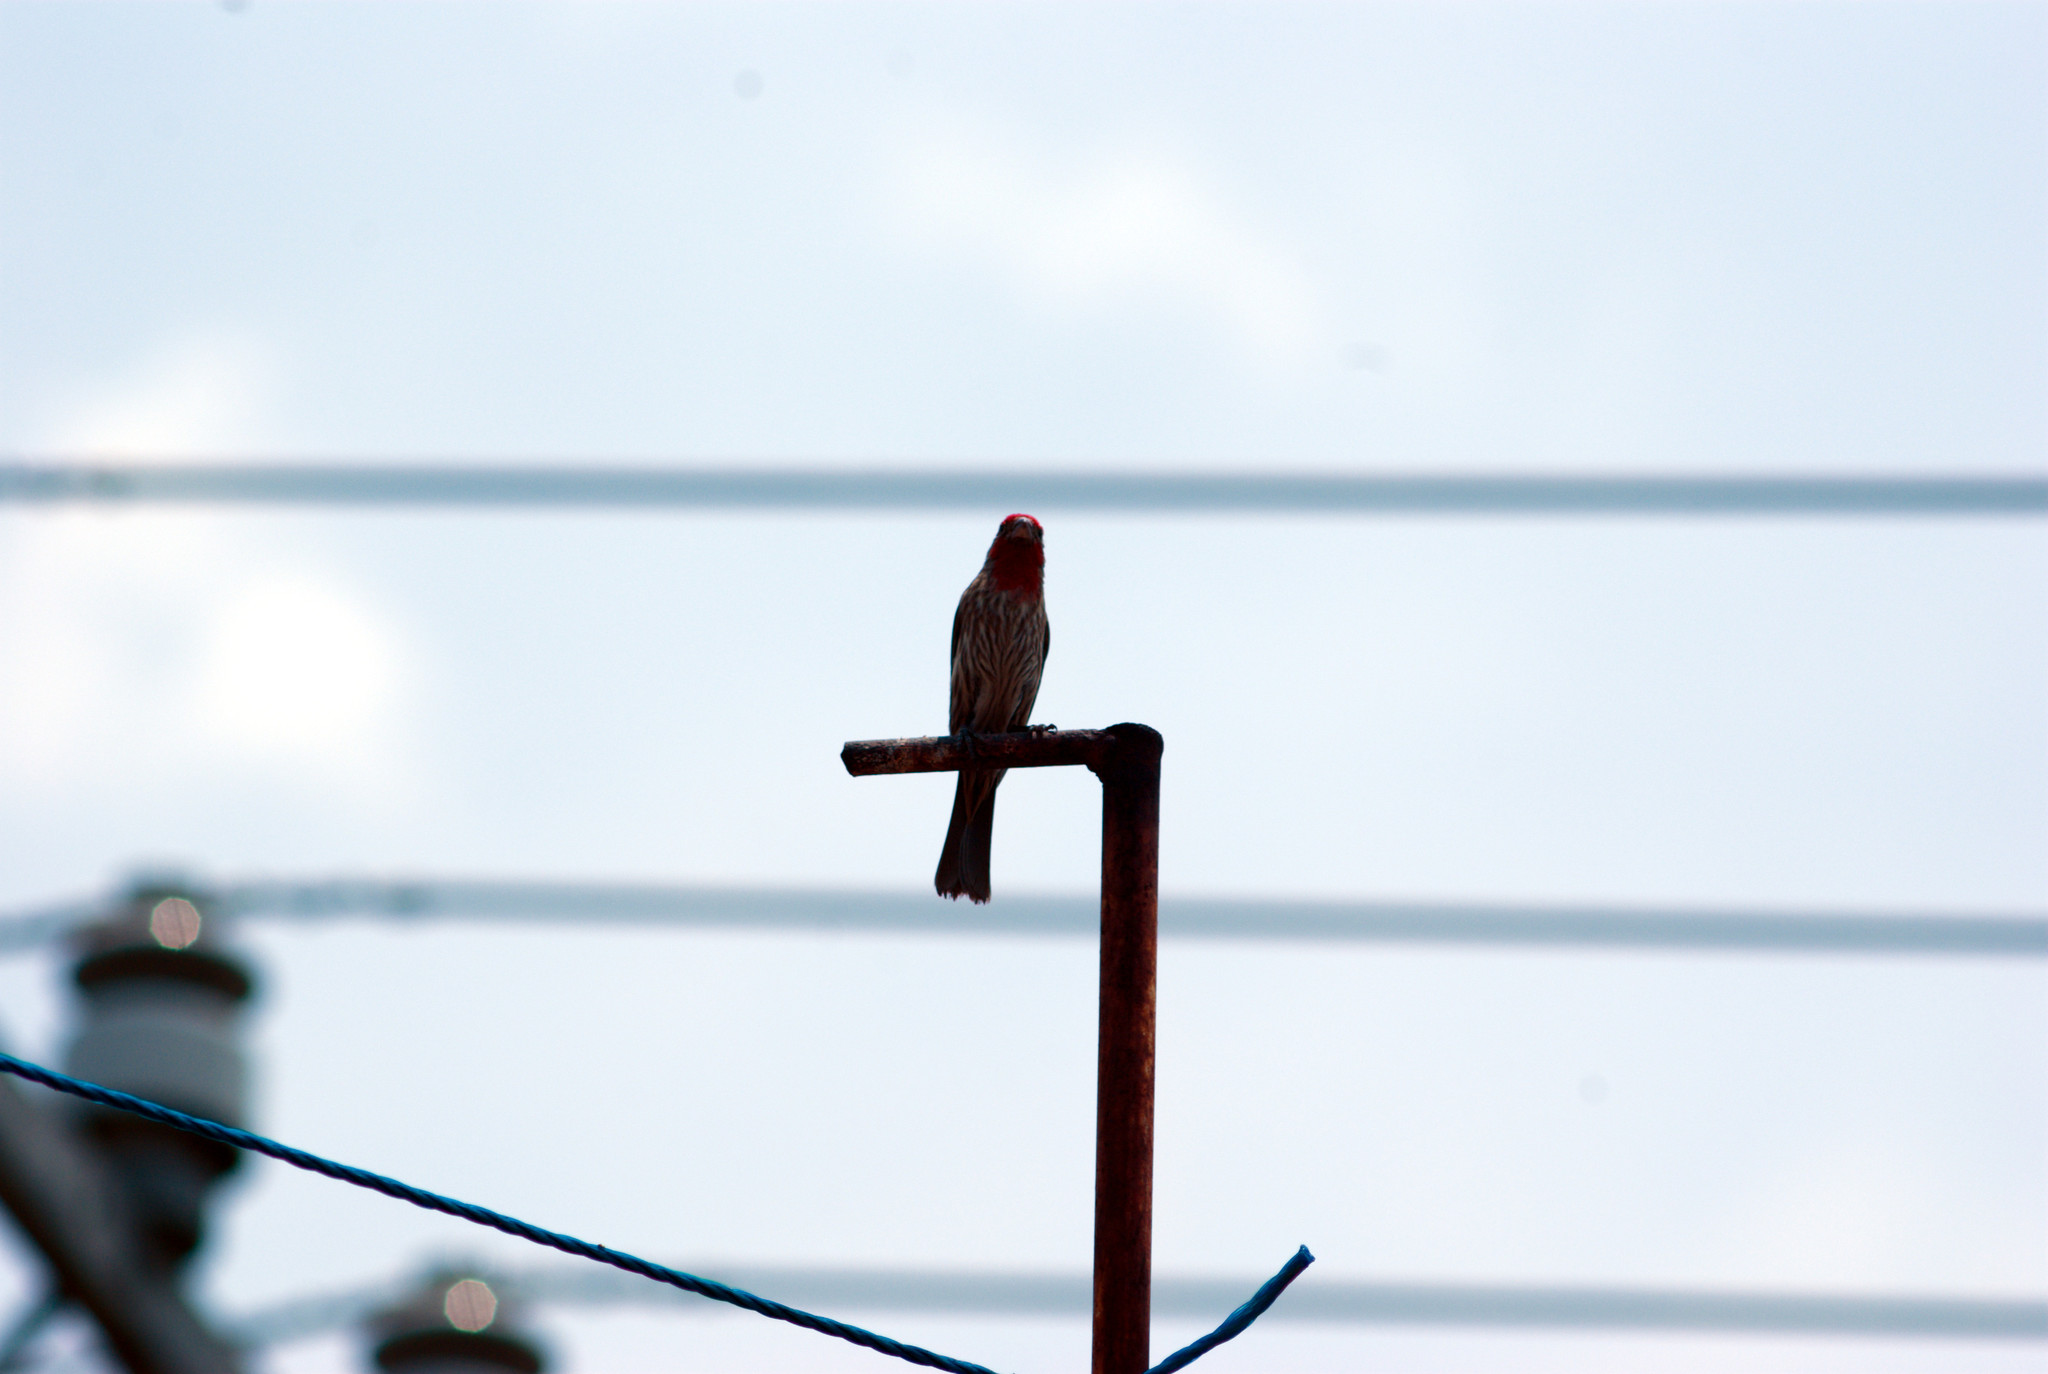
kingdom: Animalia
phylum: Chordata
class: Aves
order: Passeriformes
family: Fringillidae
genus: Haemorhous
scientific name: Haemorhous mexicanus
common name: House finch
